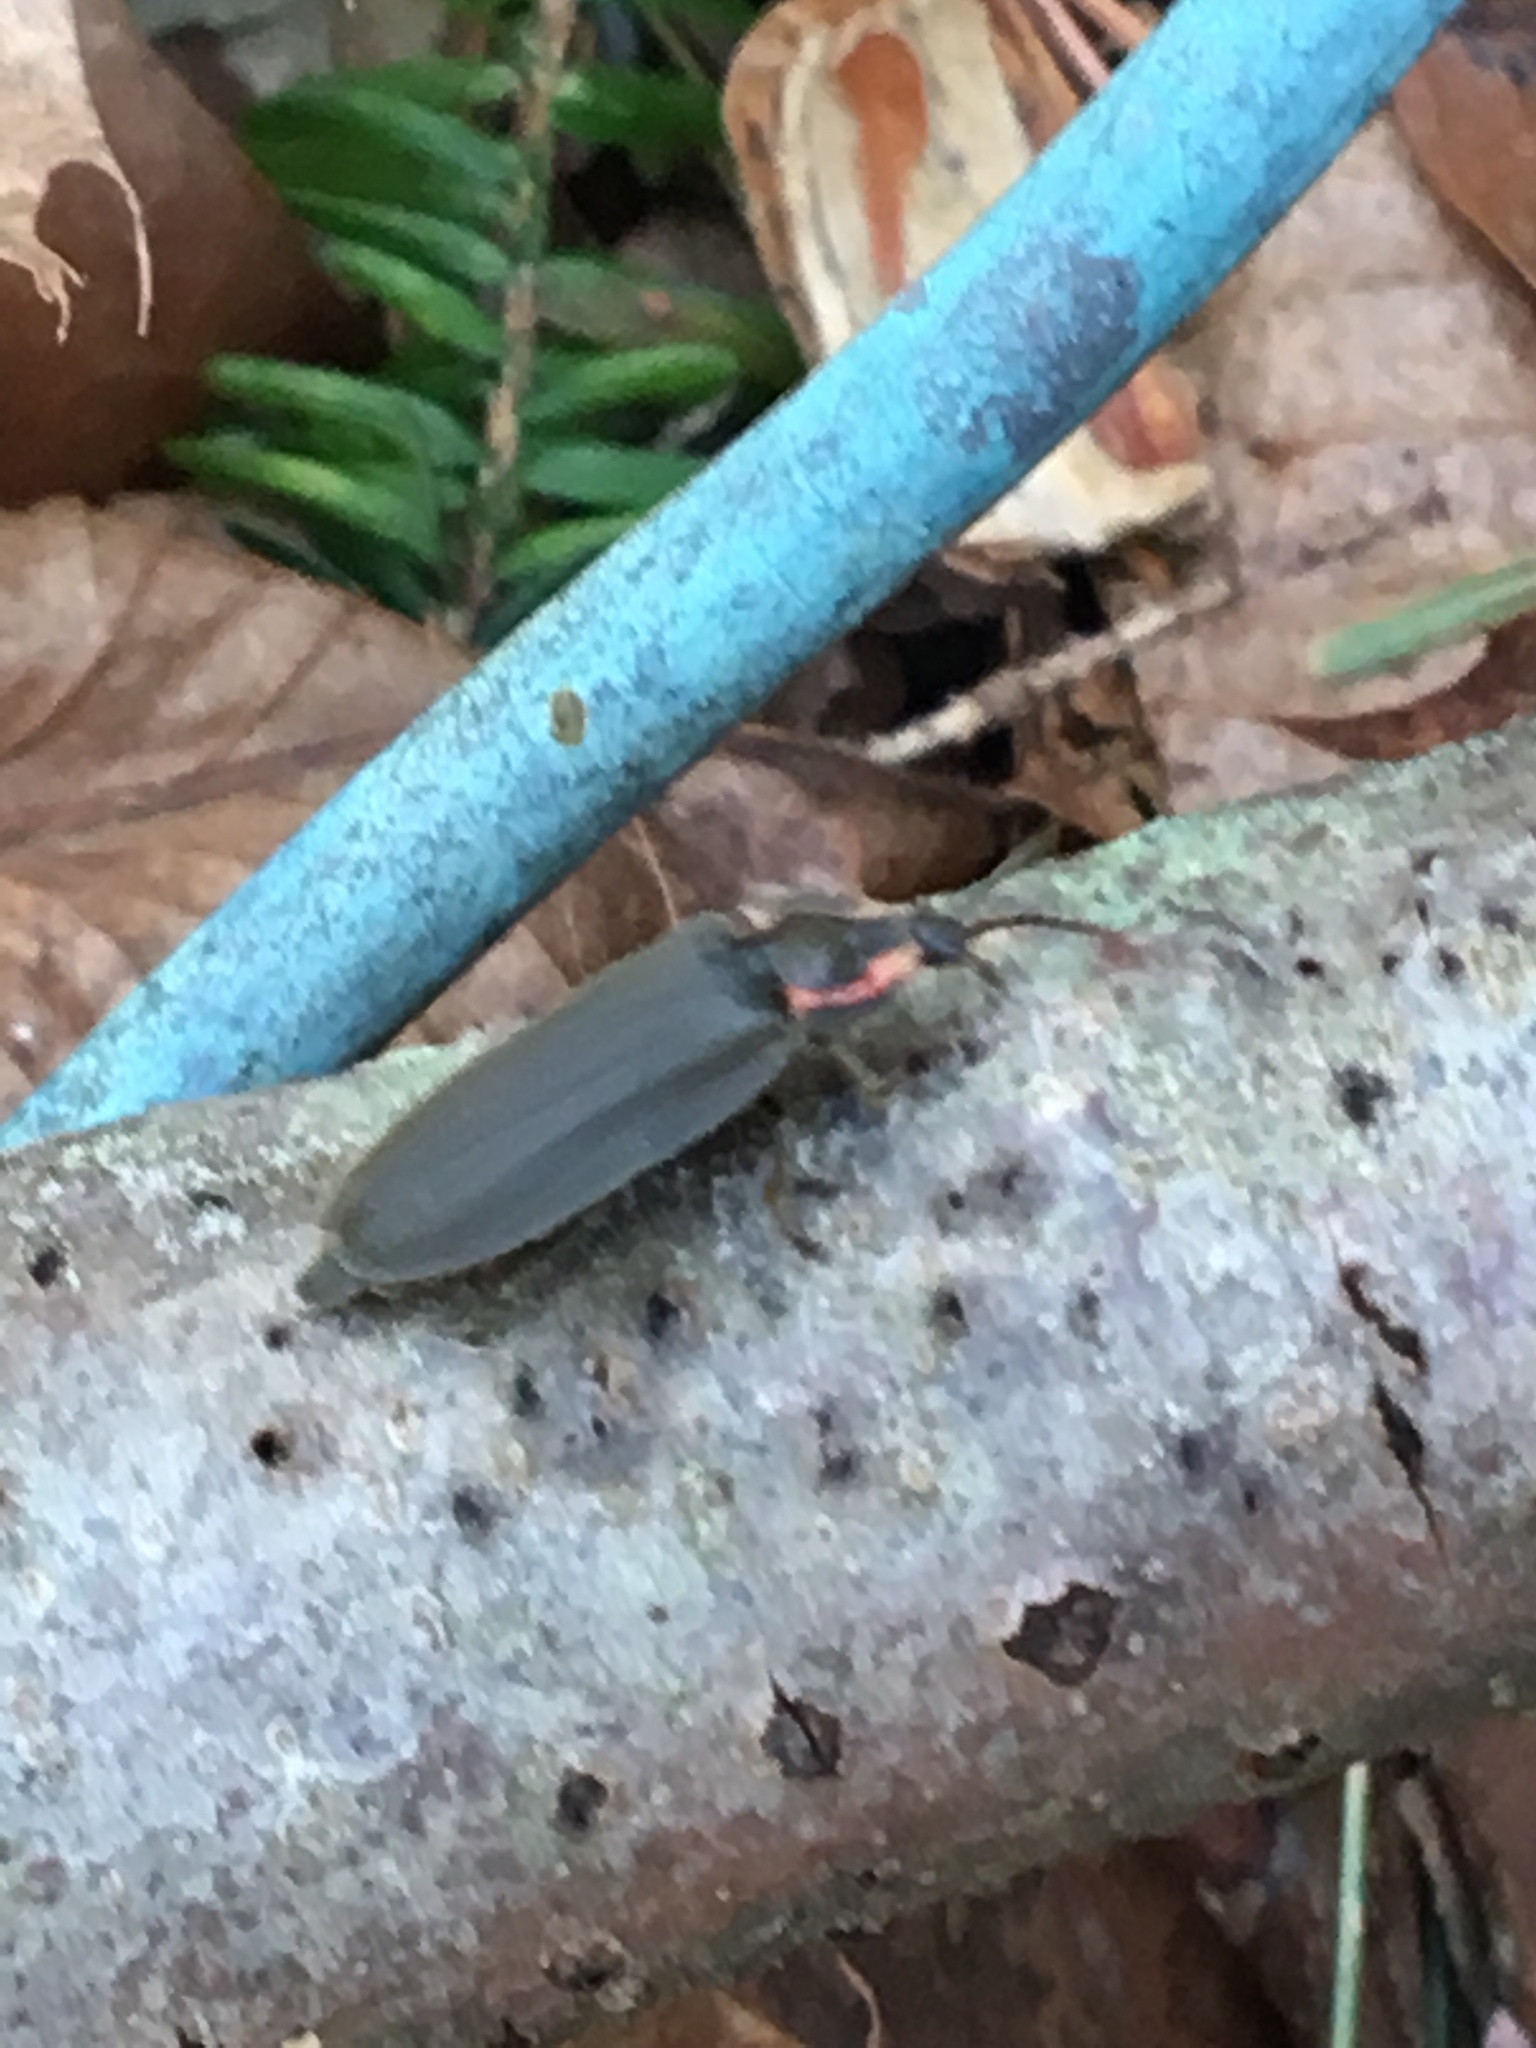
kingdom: Animalia
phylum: Arthropoda
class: Insecta
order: Coleoptera
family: Lampyridae
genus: Photinus
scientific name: Photinus corrusca
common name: Winter firefly
